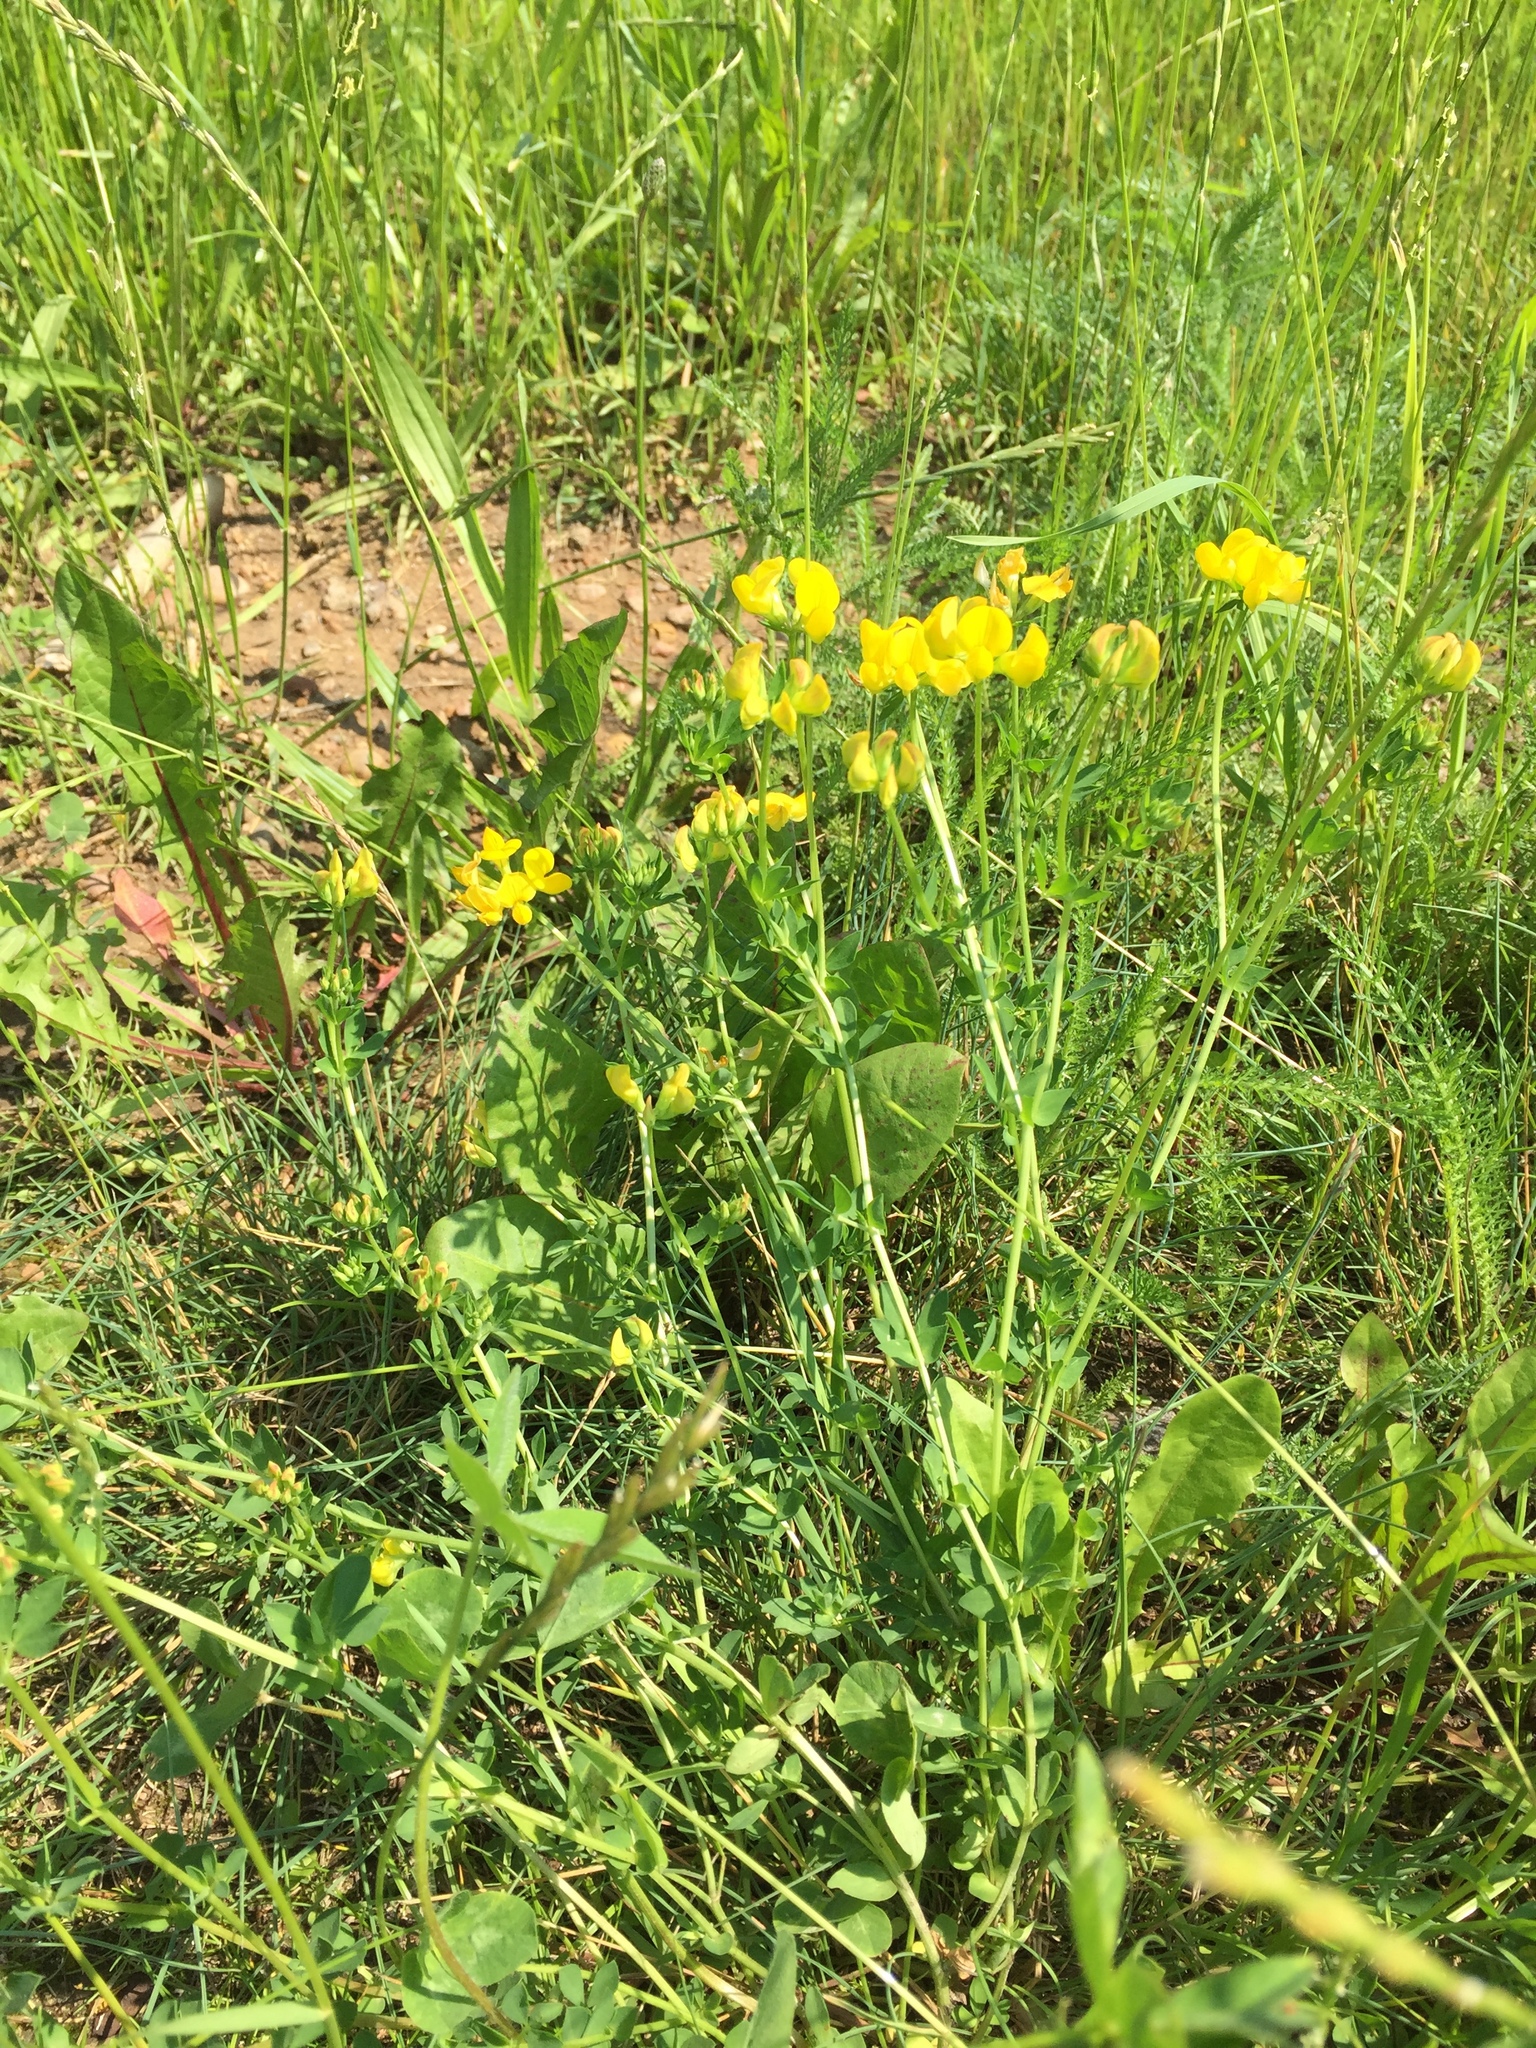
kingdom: Plantae
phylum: Tracheophyta
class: Magnoliopsida
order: Fabales
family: Fabaceae
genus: Lotus
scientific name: Lotus corniculatus
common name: Common bird's-foot-trefoil
